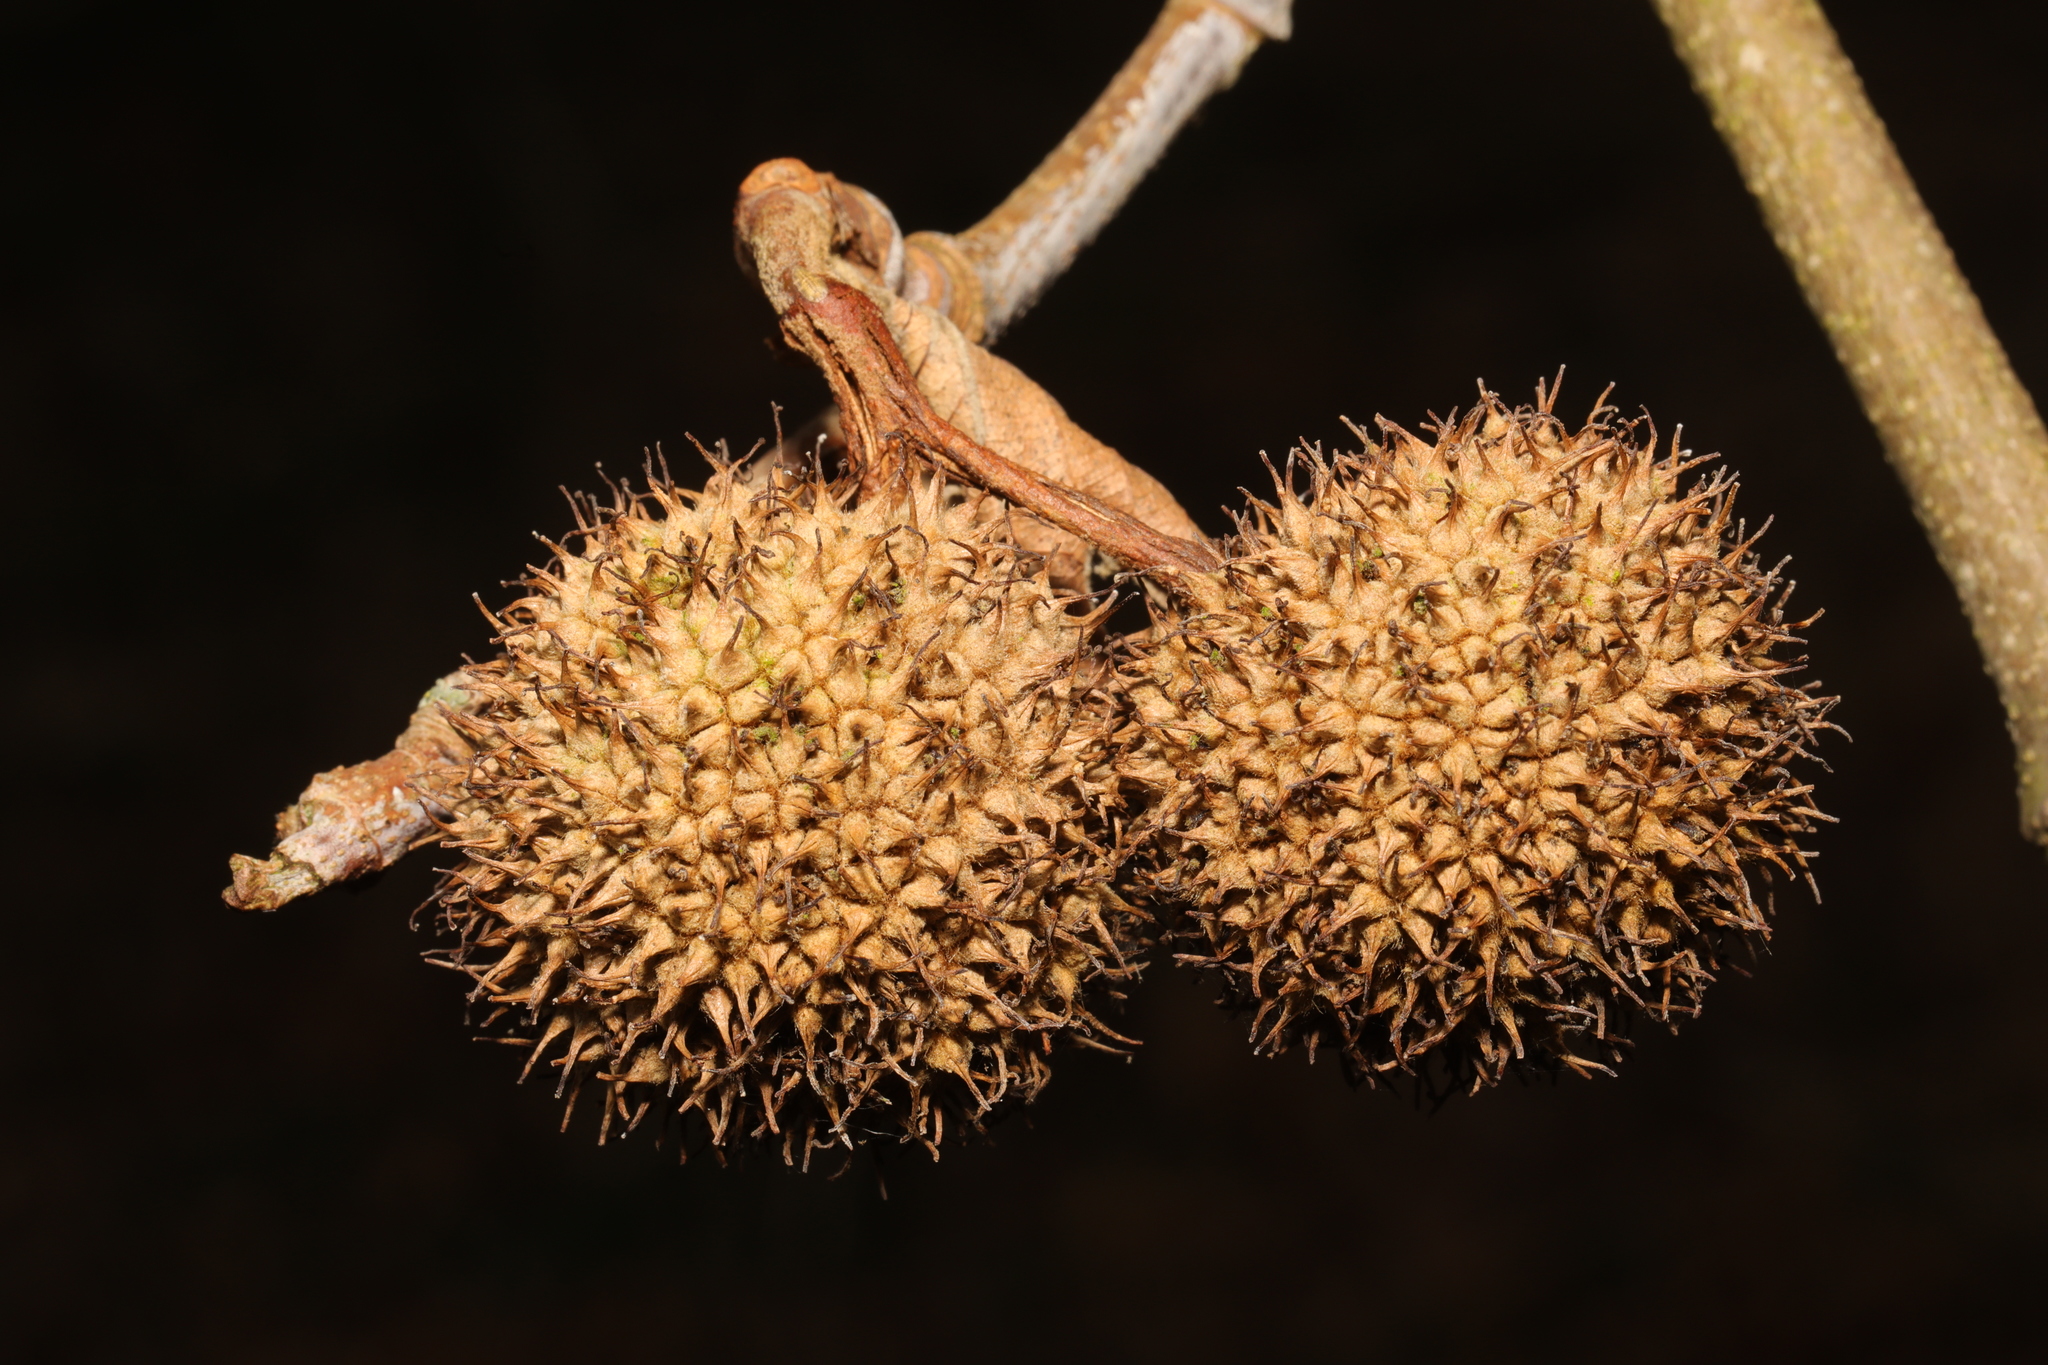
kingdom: Plantae
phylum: Tracheophyta
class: Magnoliopsida
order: Proteales
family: Platanaceae
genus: Platanus
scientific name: Platanus hispanica
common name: London plane
